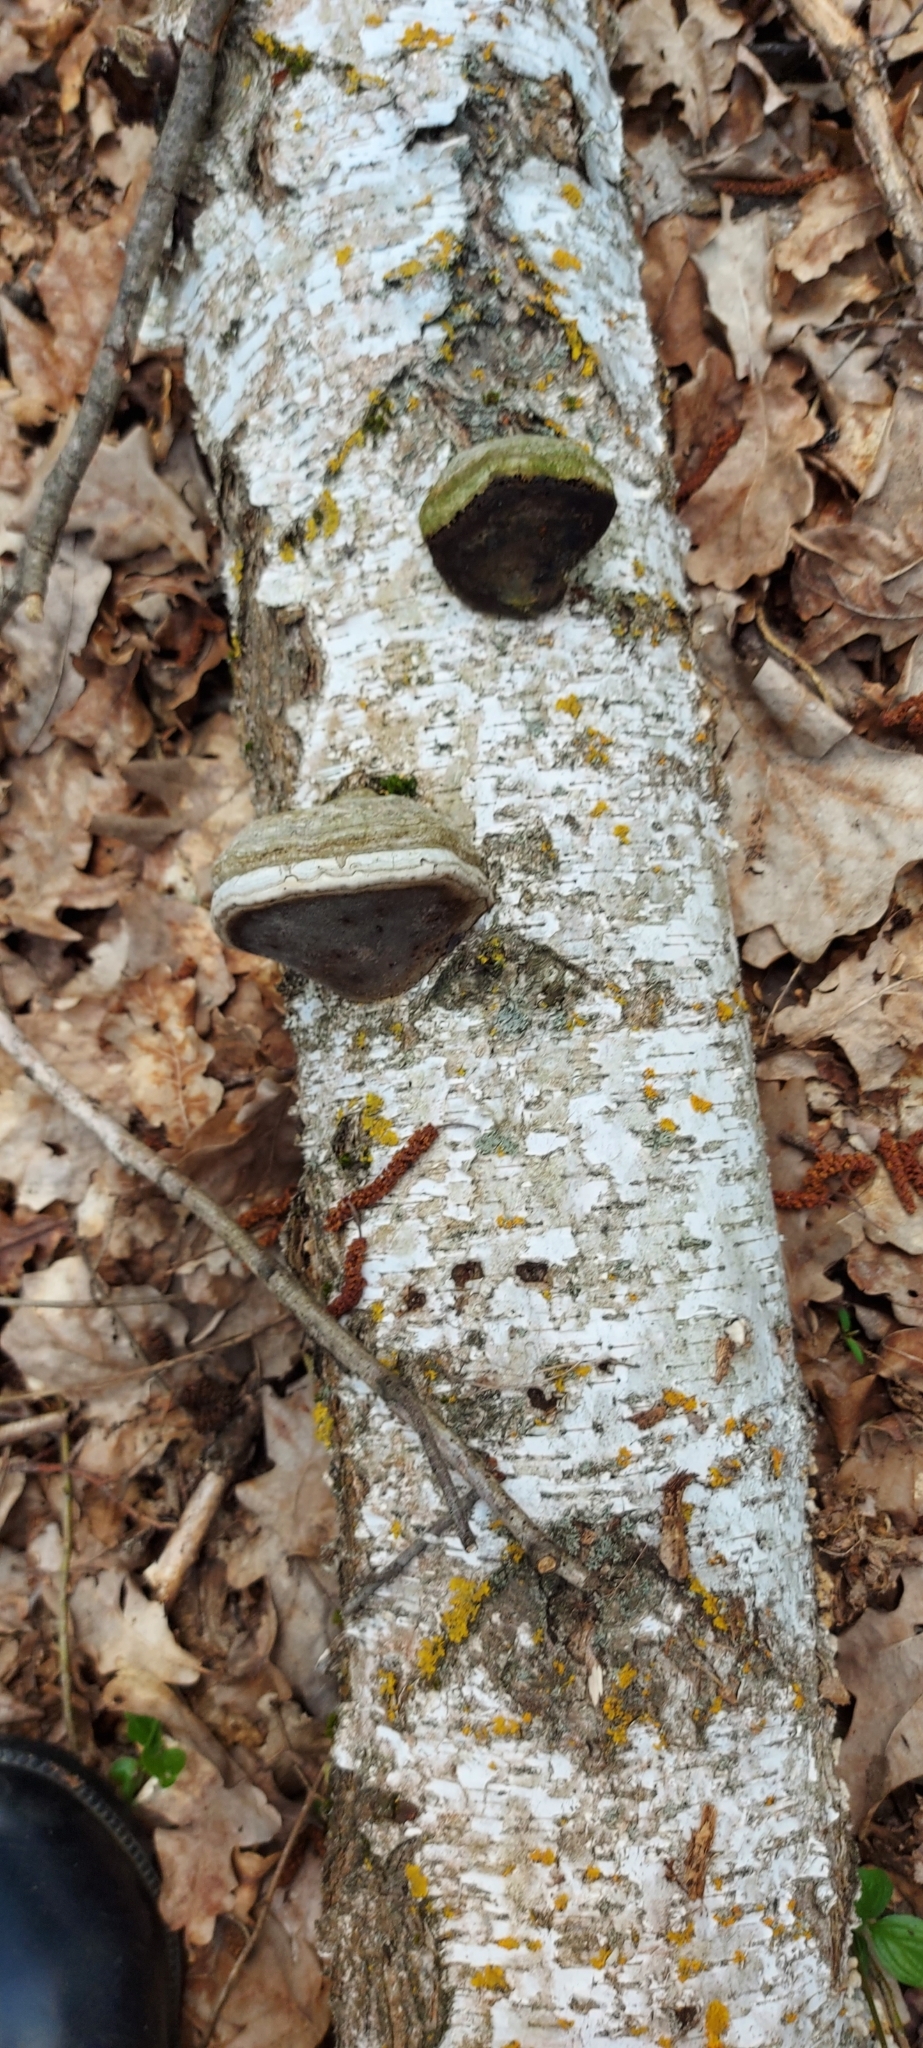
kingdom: Fungi
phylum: Basidiomycota
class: Agaricomycetes
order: Polyporales
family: Polyporaceae
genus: Fomes
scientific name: Fomes fomentarius
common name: Hoof fungus
